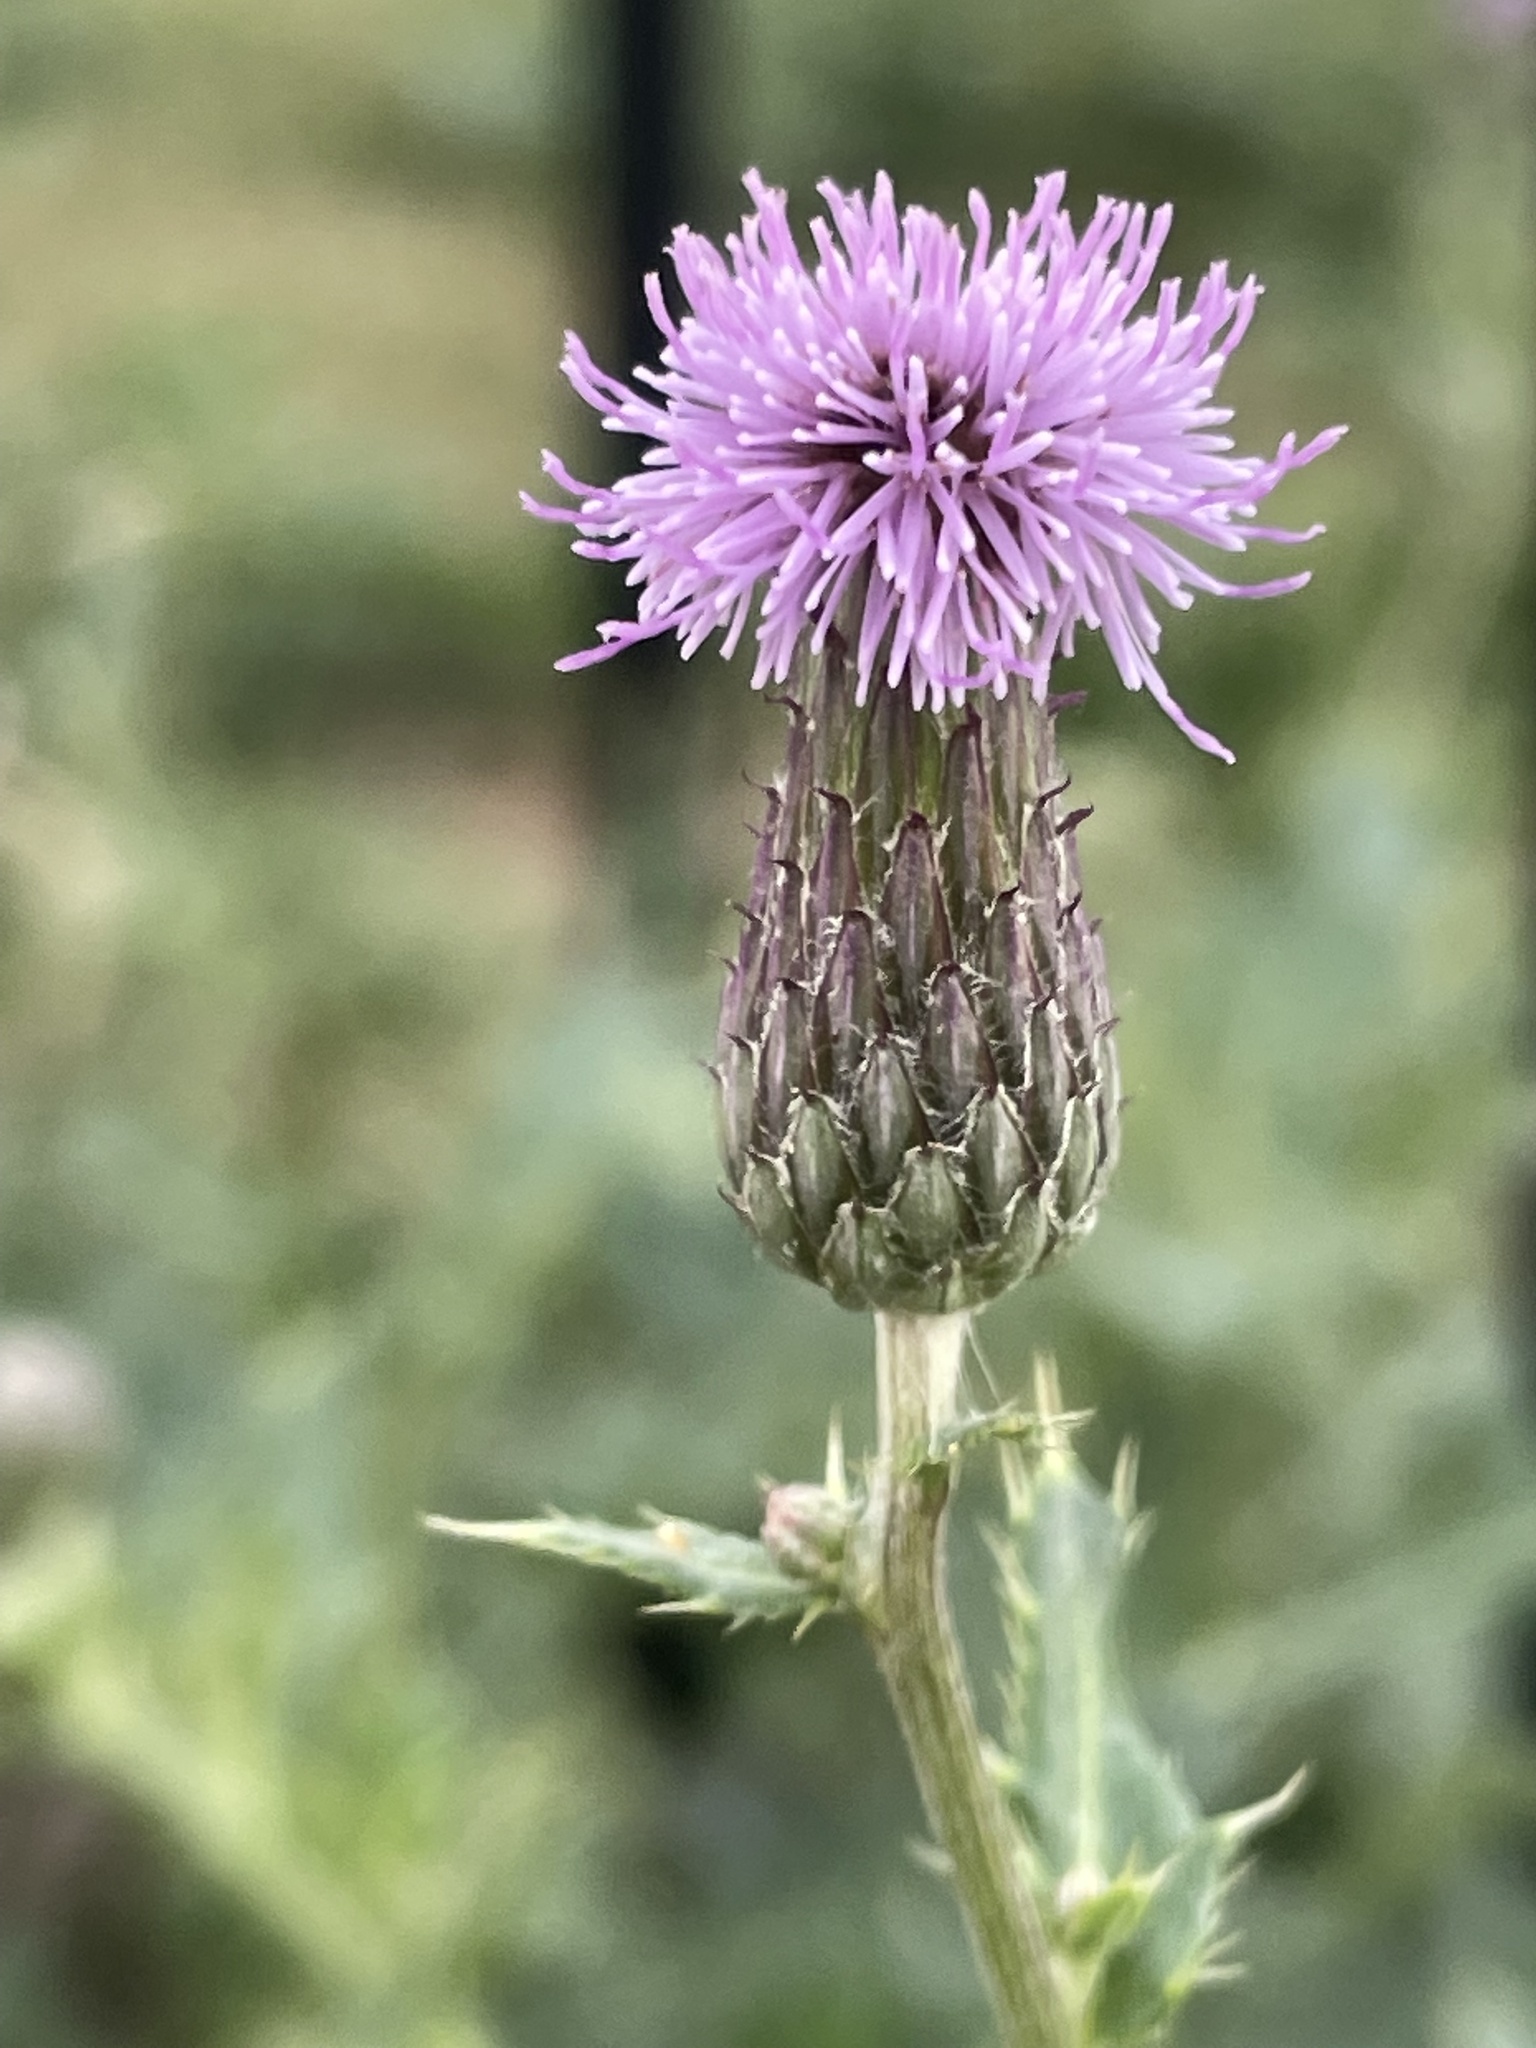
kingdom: Plantae
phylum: Tracheophyta
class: Magnoliopsida
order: Asterales
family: Asteraceae
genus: Cirsium
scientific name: Cirsium arvense
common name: Creeping thistle
